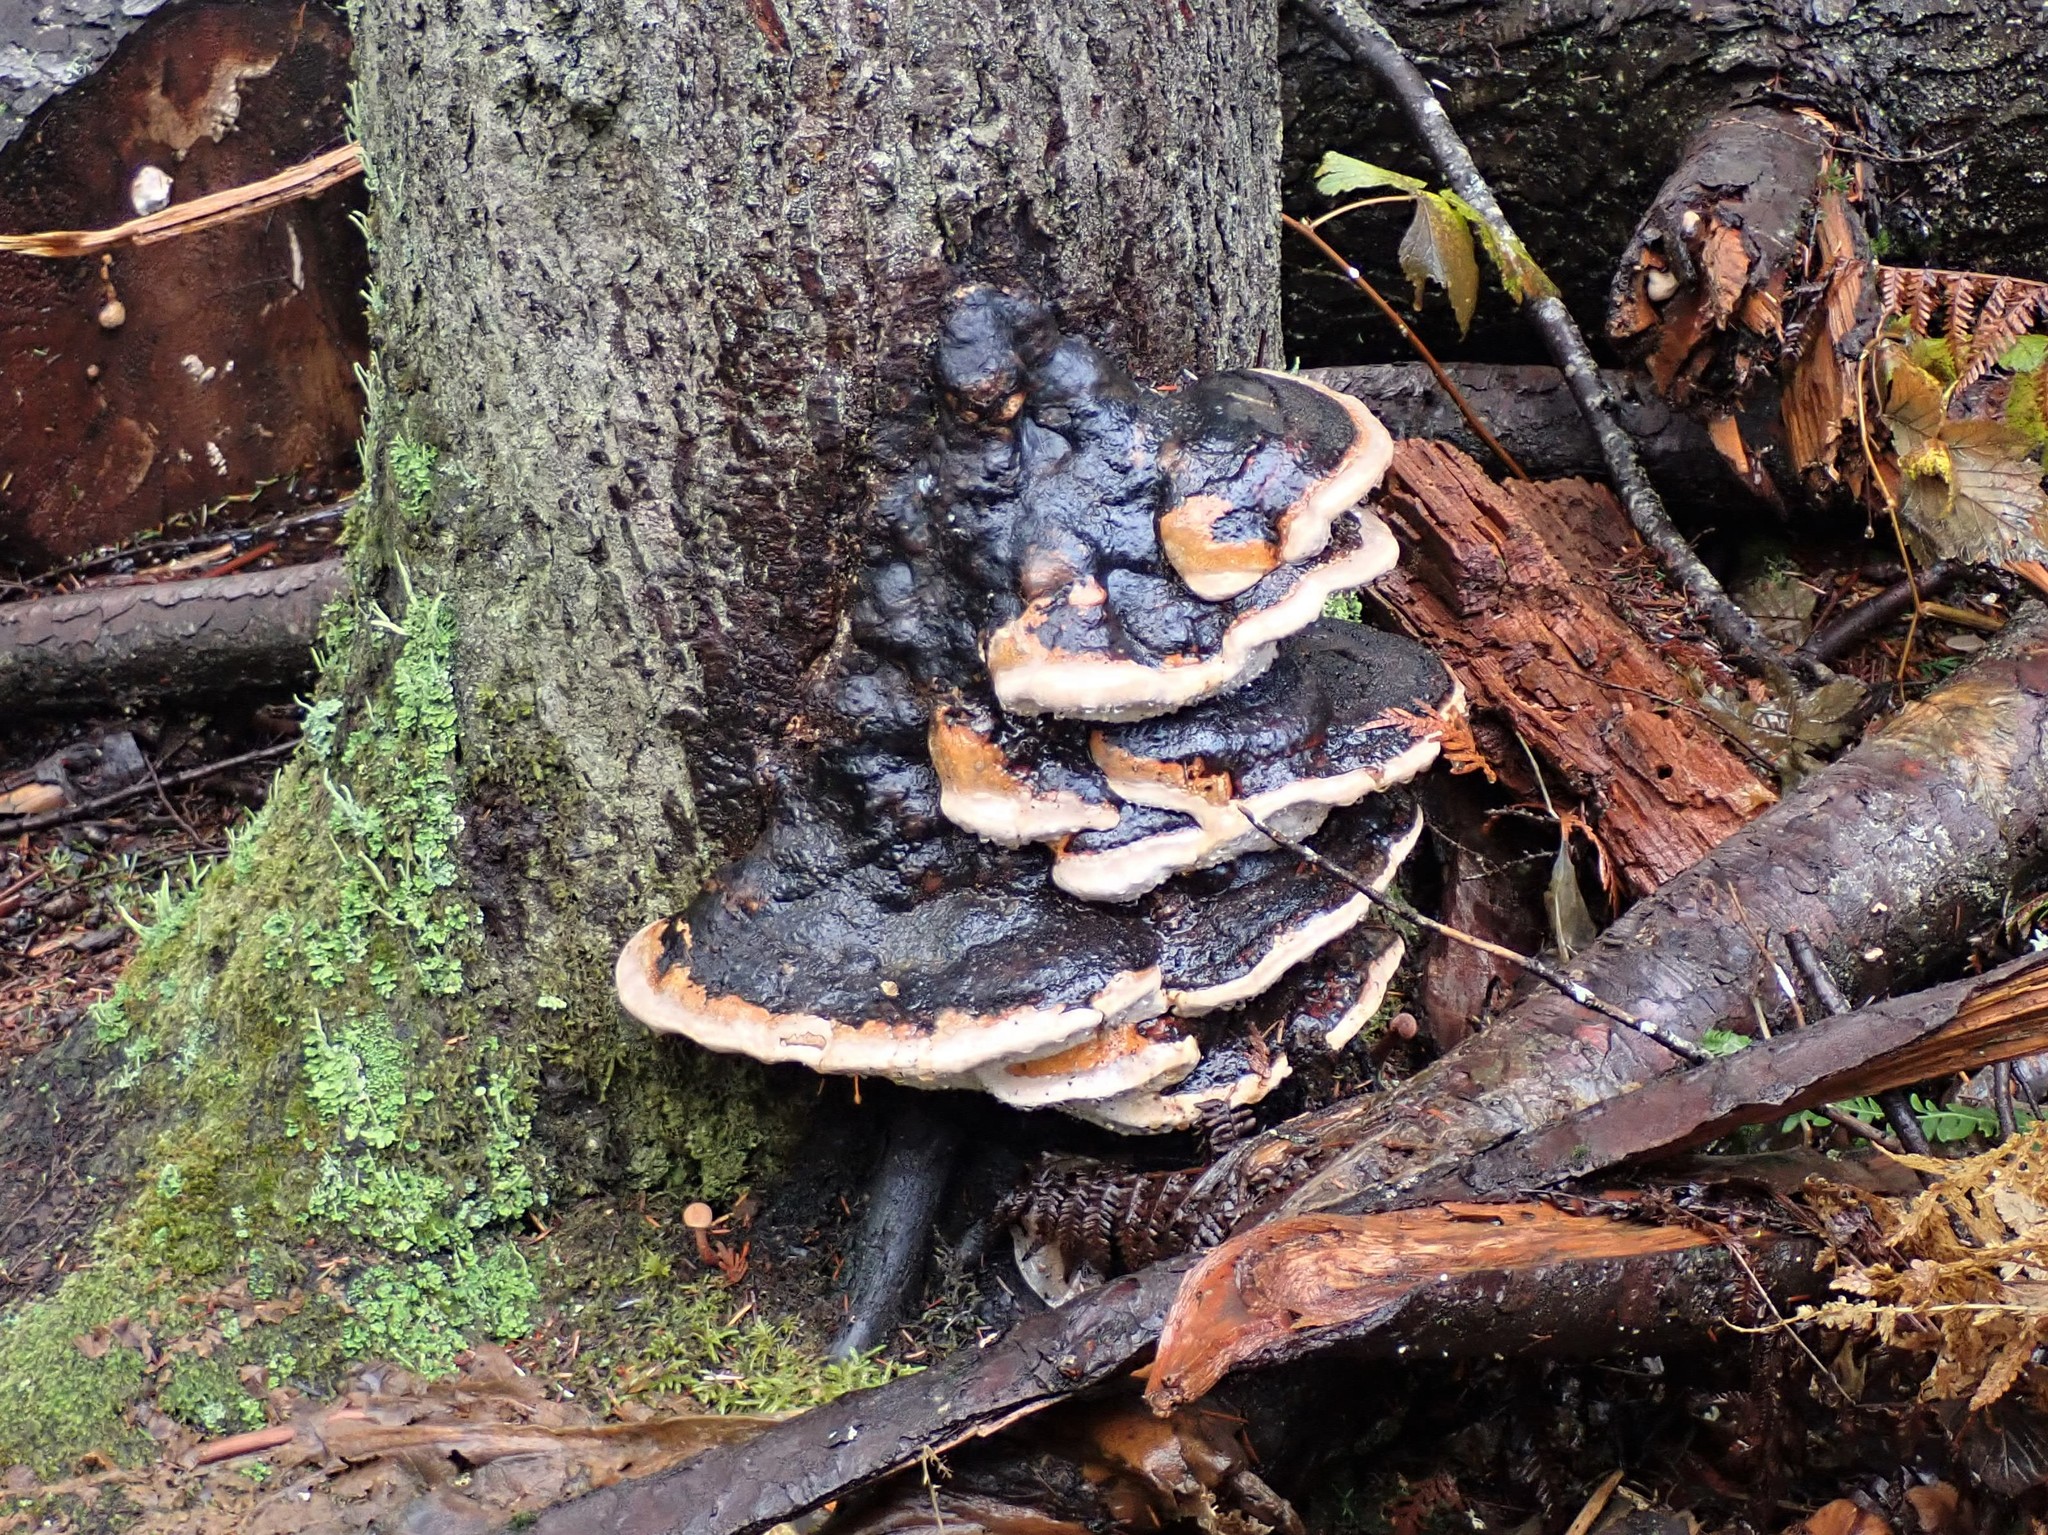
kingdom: Fungi
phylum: Basidiomycota
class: Agaricomycetes
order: Polyporales
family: Fomitopsidaceae
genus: Fomitopsis
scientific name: Fomitopsis mounceae
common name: Northern red belt
